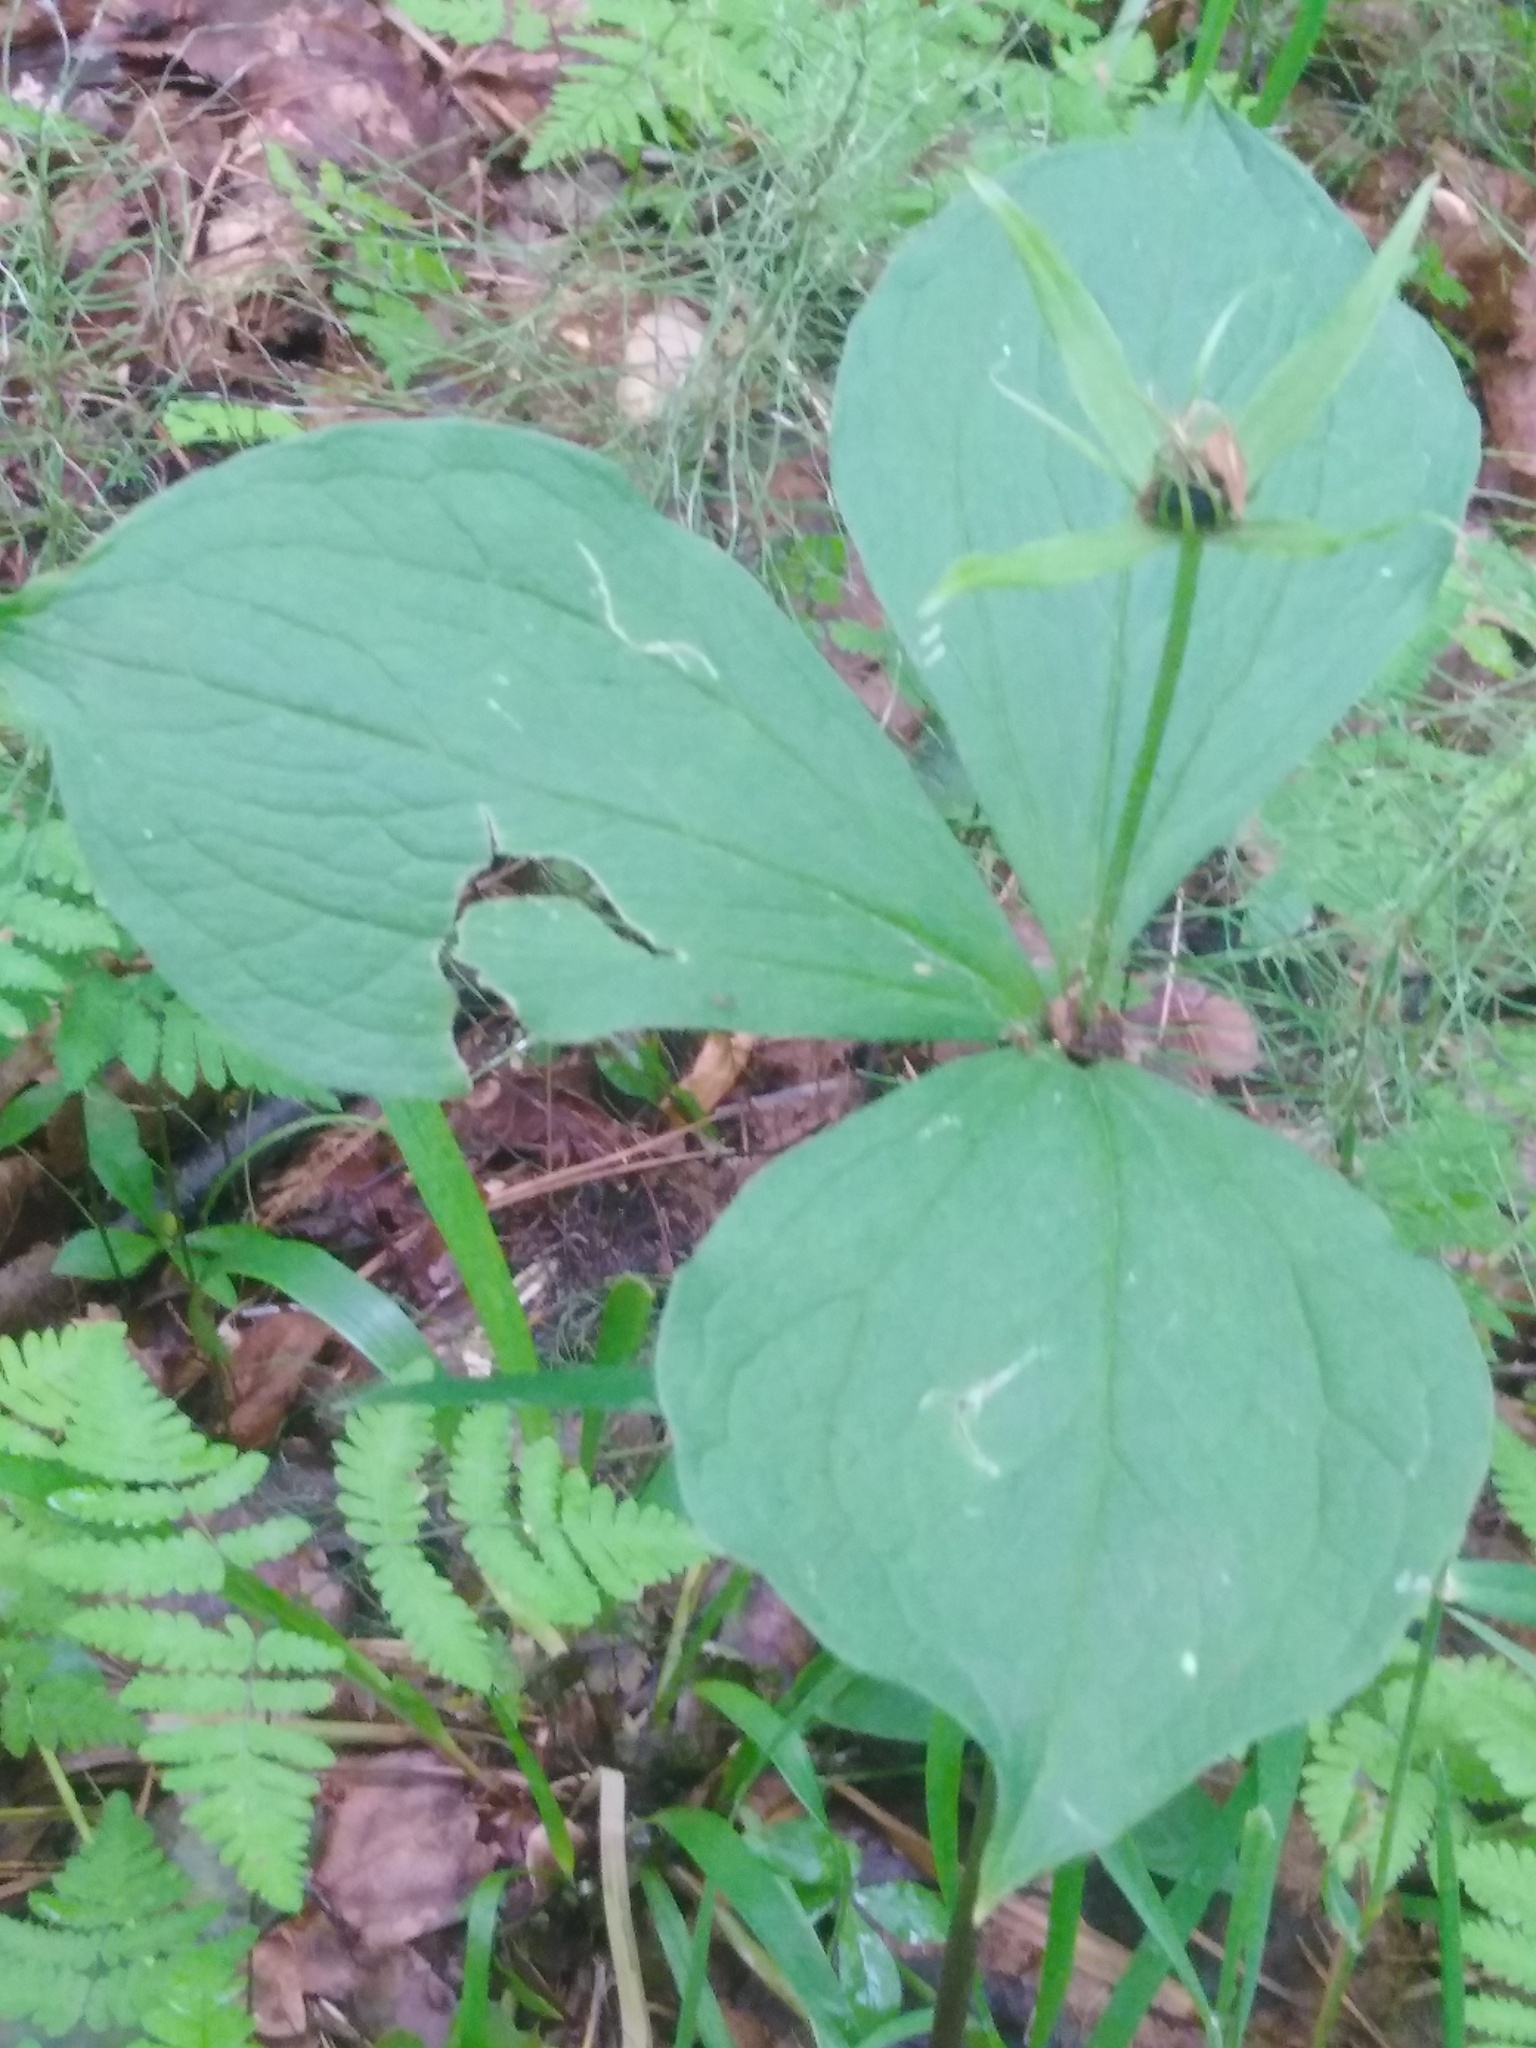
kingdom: Plantae
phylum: Tracheophyta
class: Liliopsida
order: Liliales
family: Melanthiaceae
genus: Paris
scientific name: Paris quadrifolia
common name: Herb-paris
